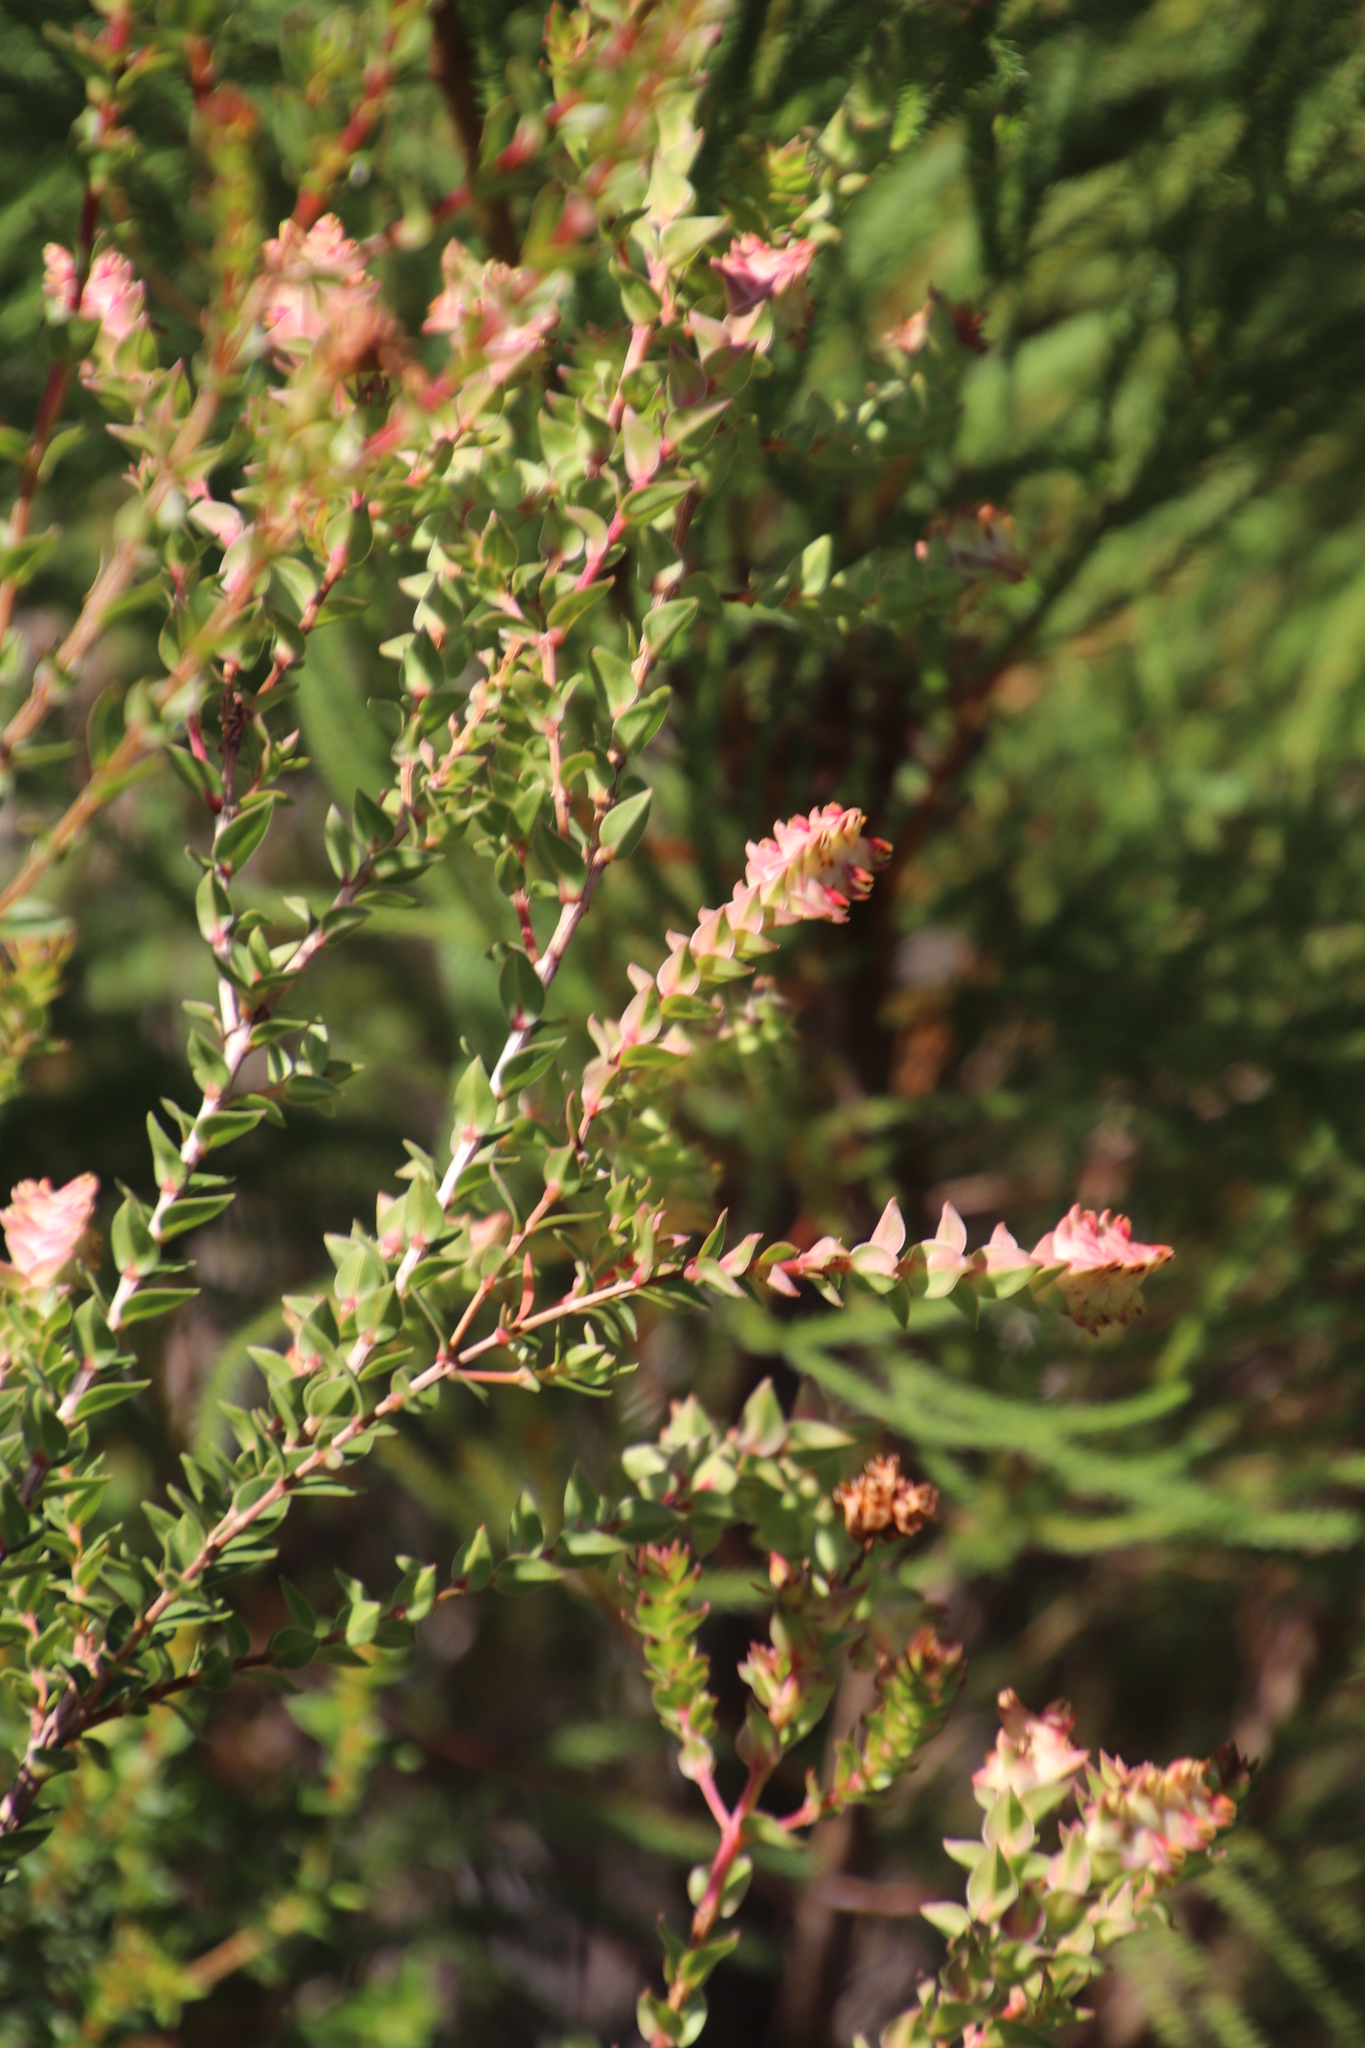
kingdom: Plantae
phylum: Tracheophyta
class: Magnoliopsida
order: Myrtales
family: Penaeaceae
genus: Penaea
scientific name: Penaea cneorum
